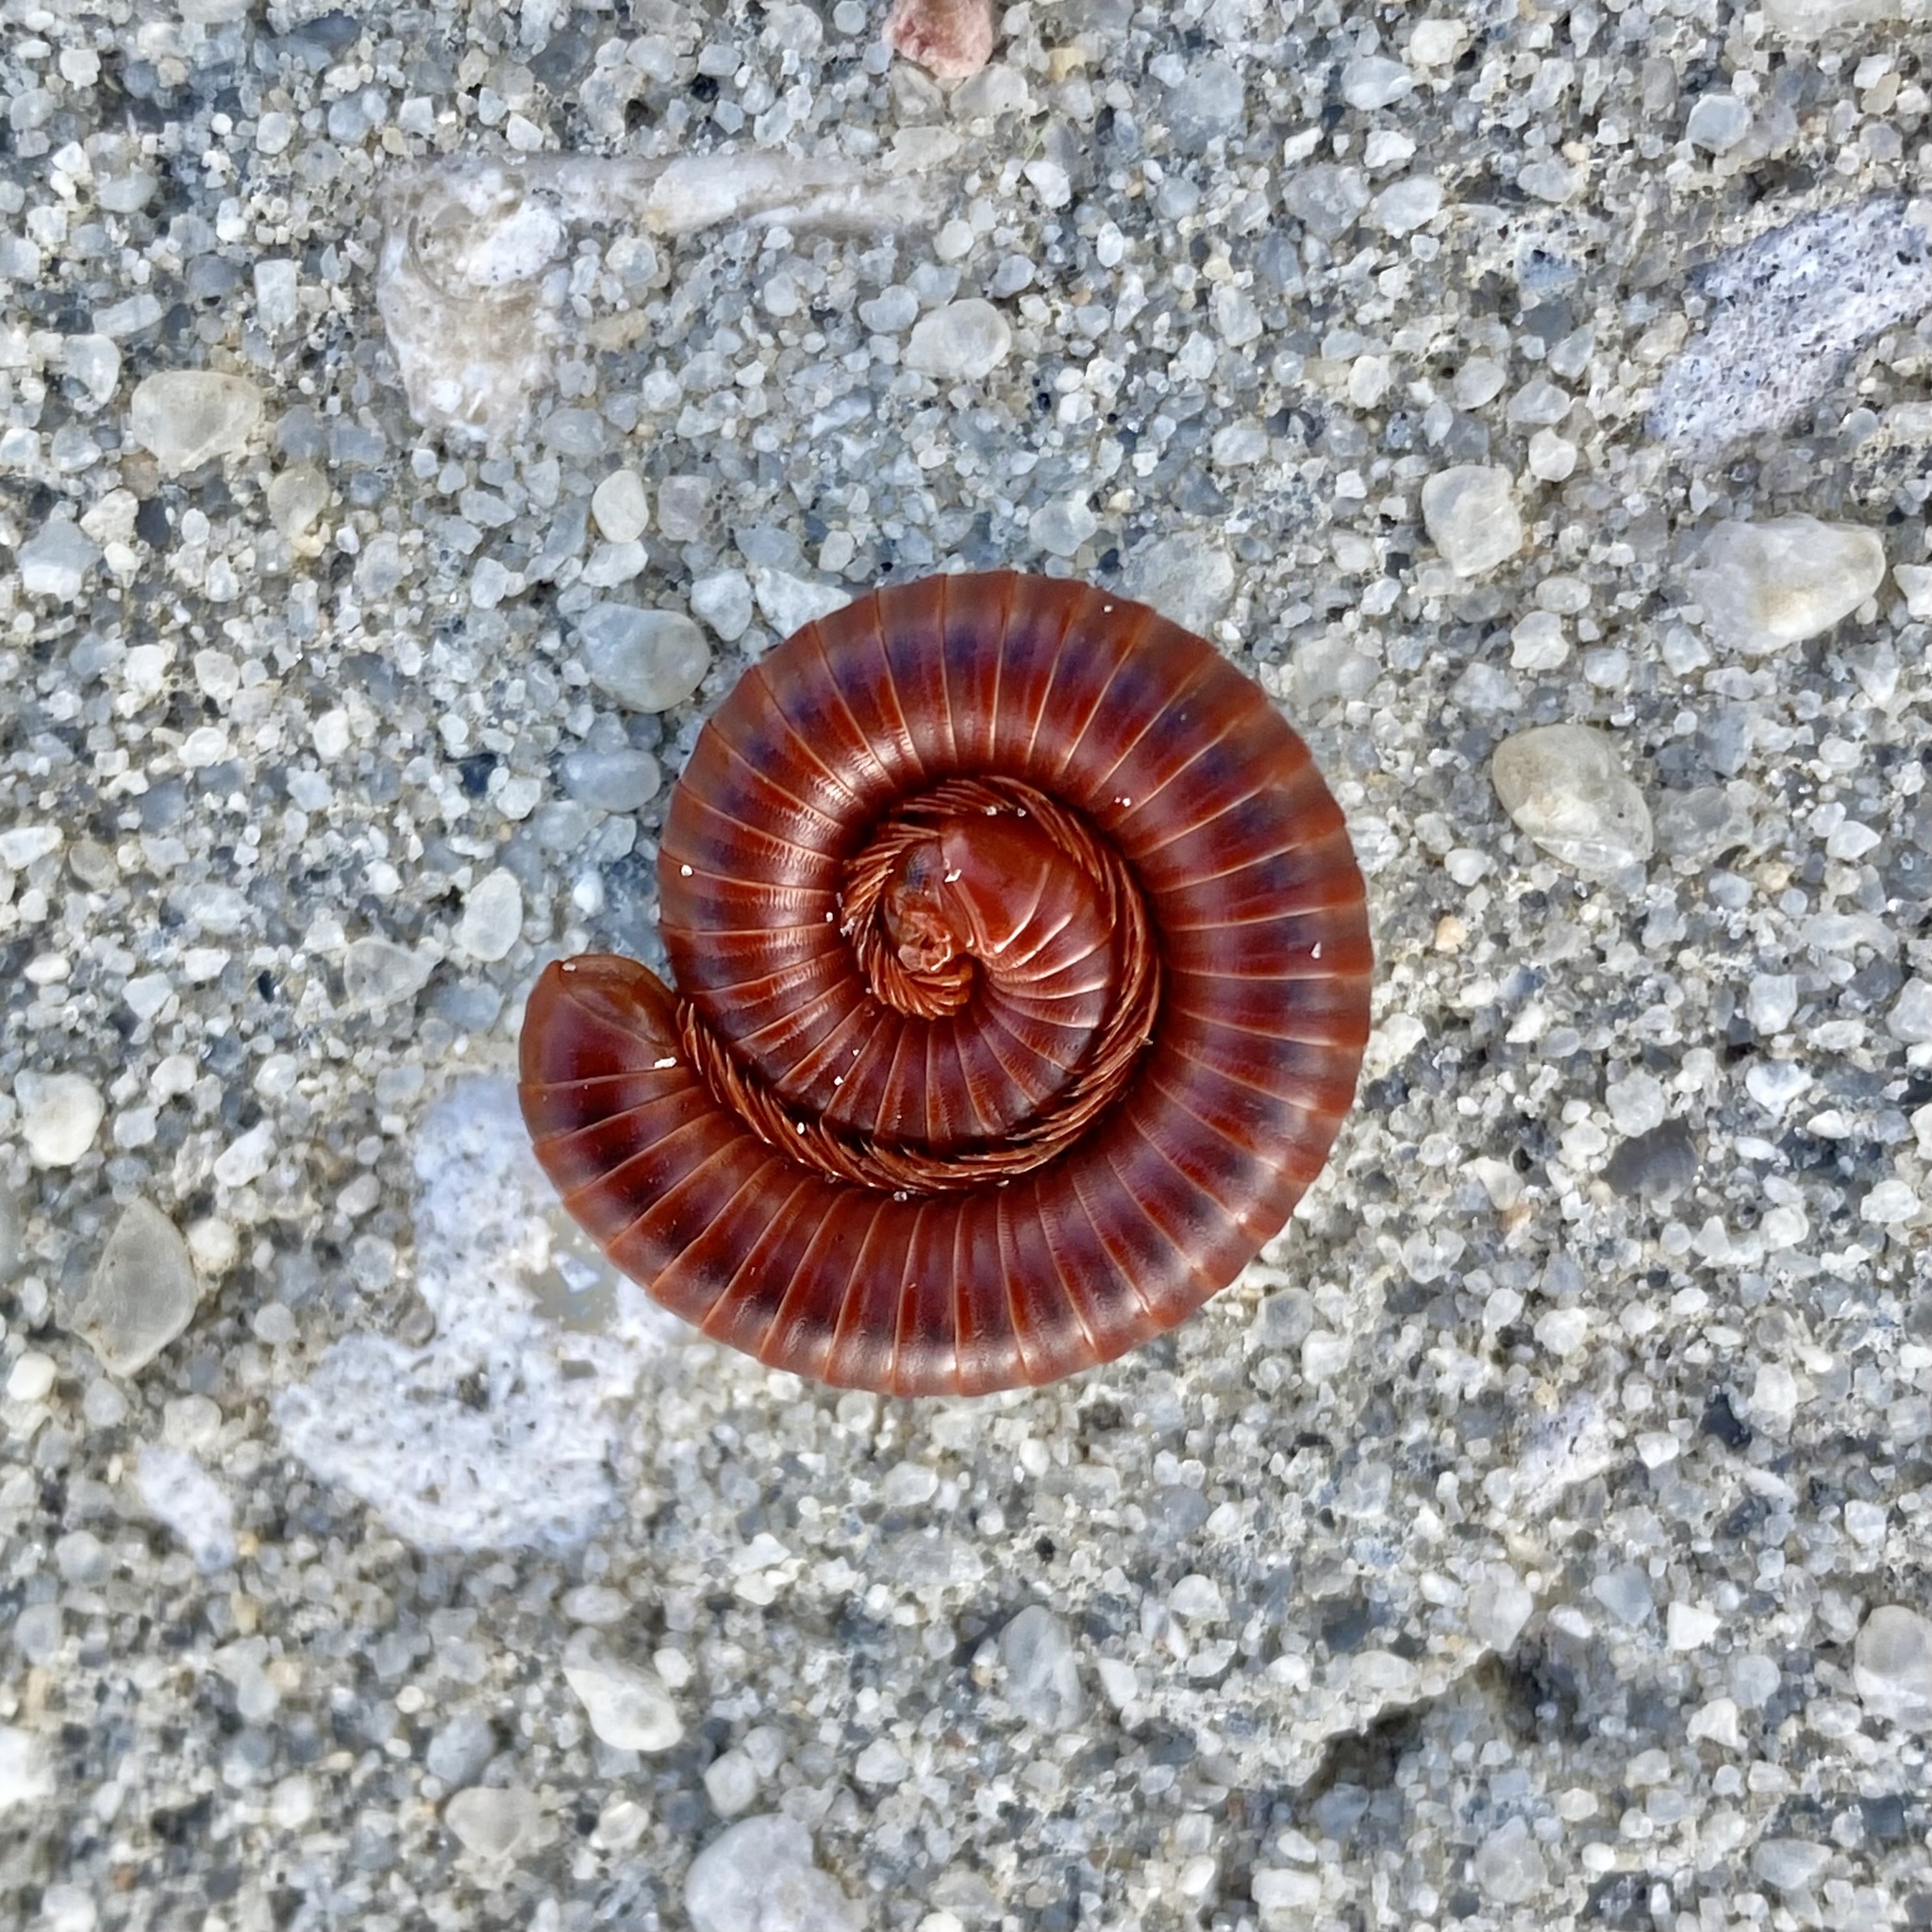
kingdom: Animalia
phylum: Arthropoda
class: Diplopoda
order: Spirobolida
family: Pachybolidae
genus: Trigoniulus
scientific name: Trigoniulus corallinus
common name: Millipede
